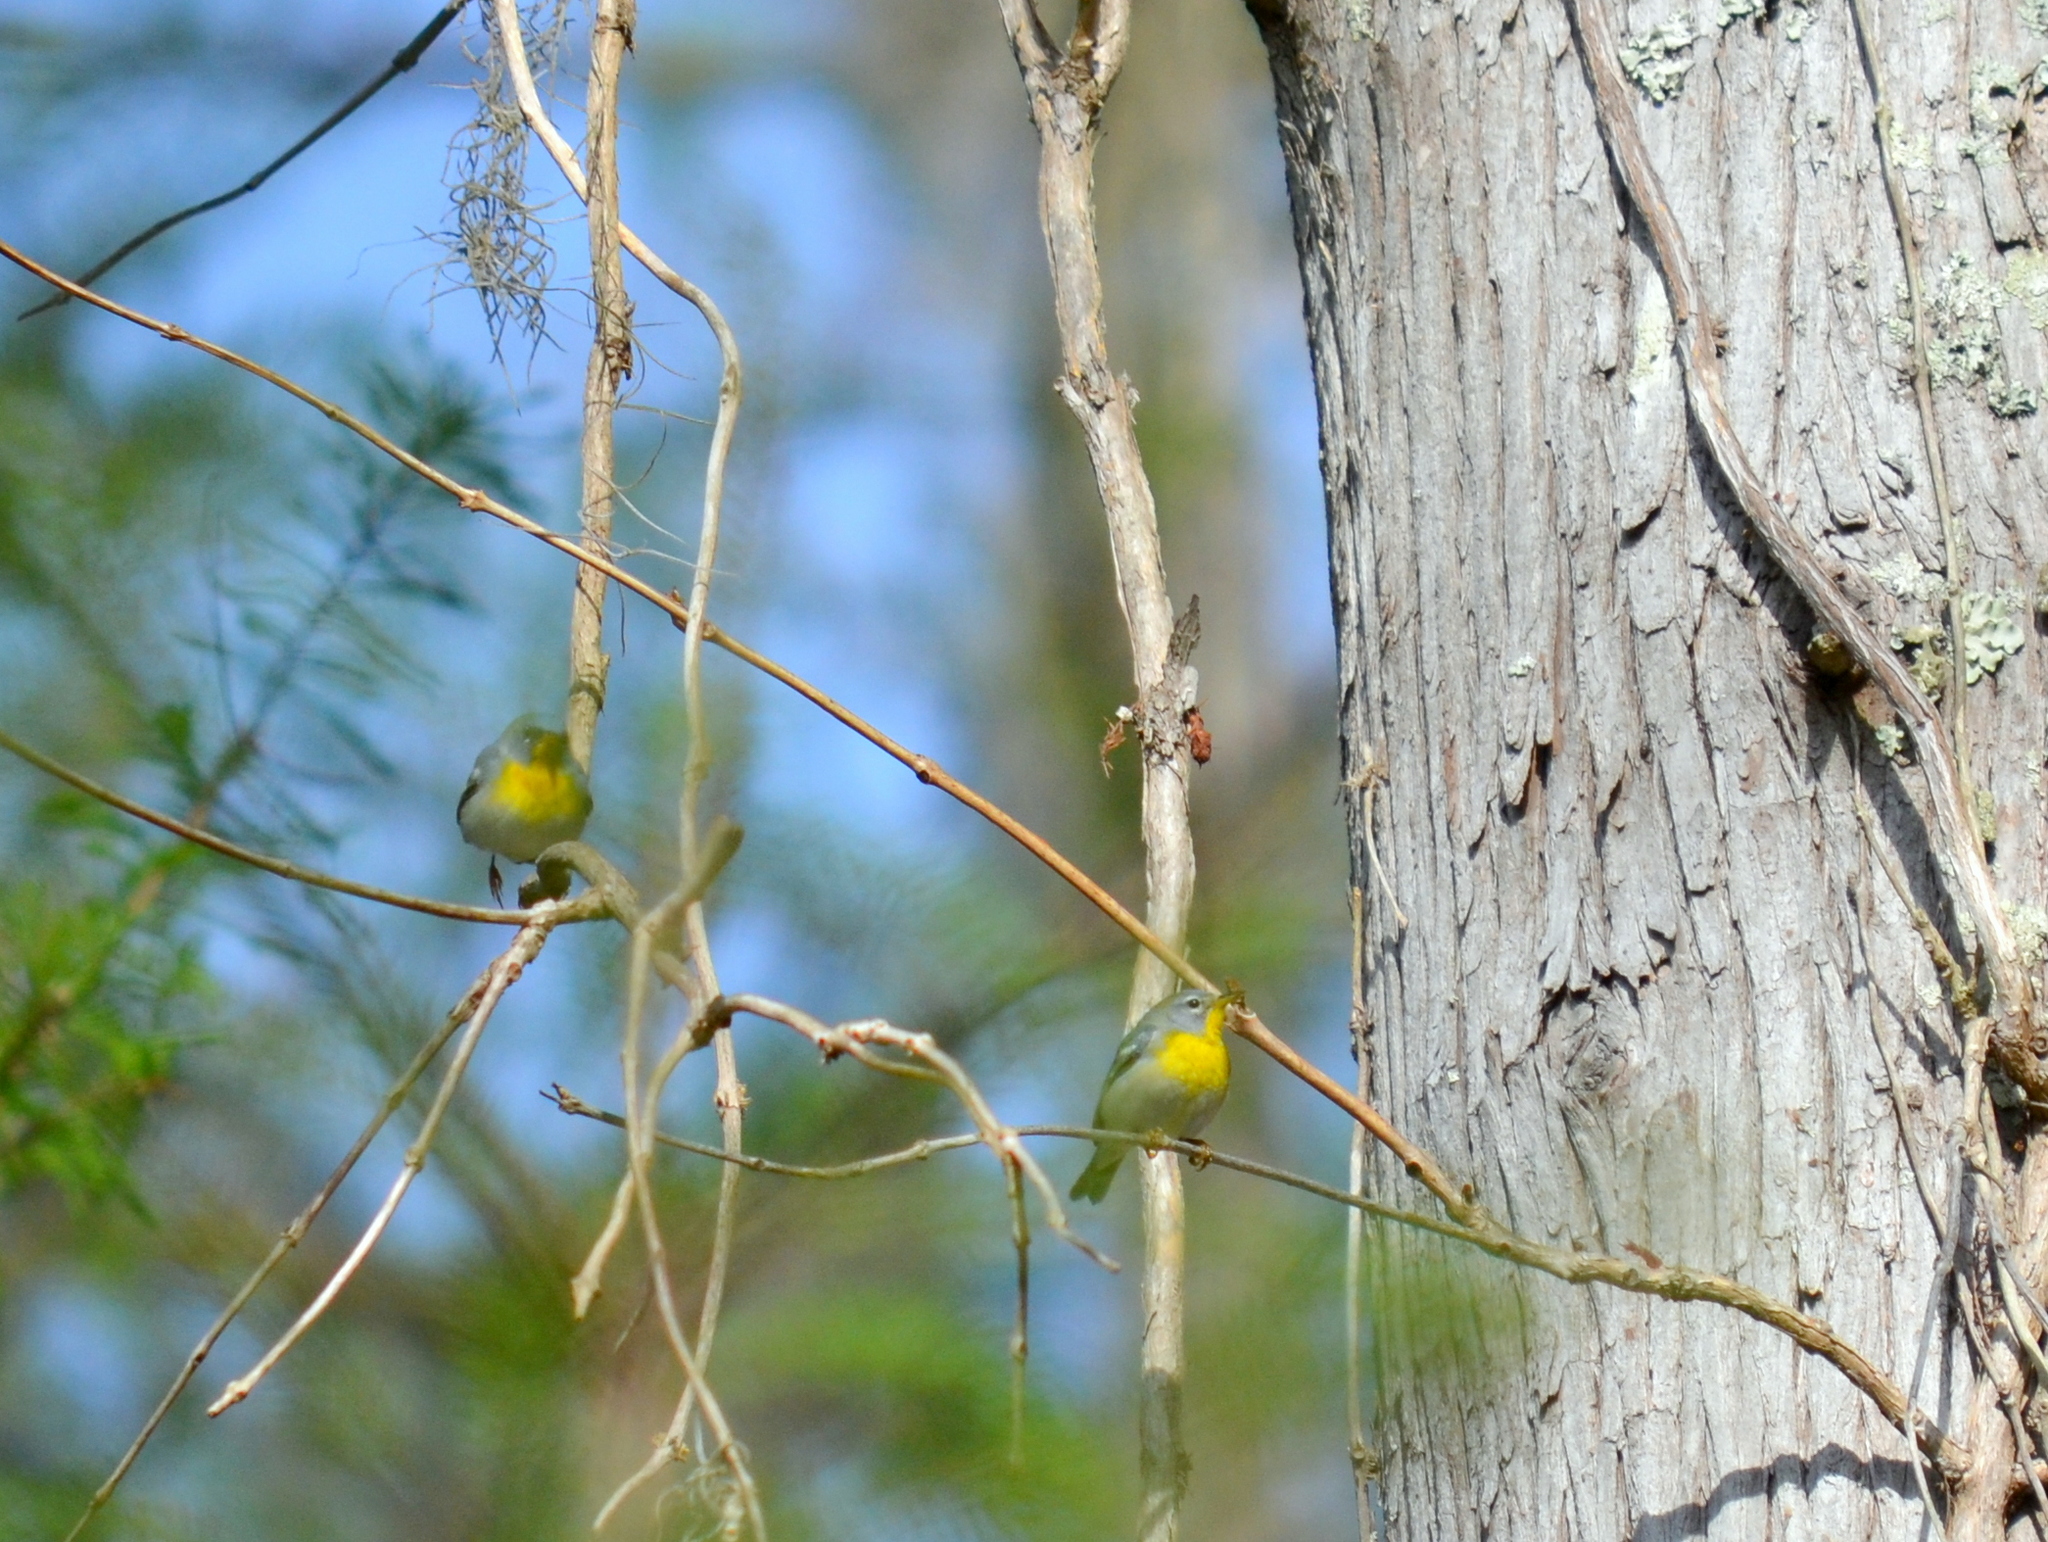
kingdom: Animalia
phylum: Chordata
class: Aves
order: Passeriformes
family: Parulidae
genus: Setophaga
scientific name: Setophaga americana
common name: Northern parula
